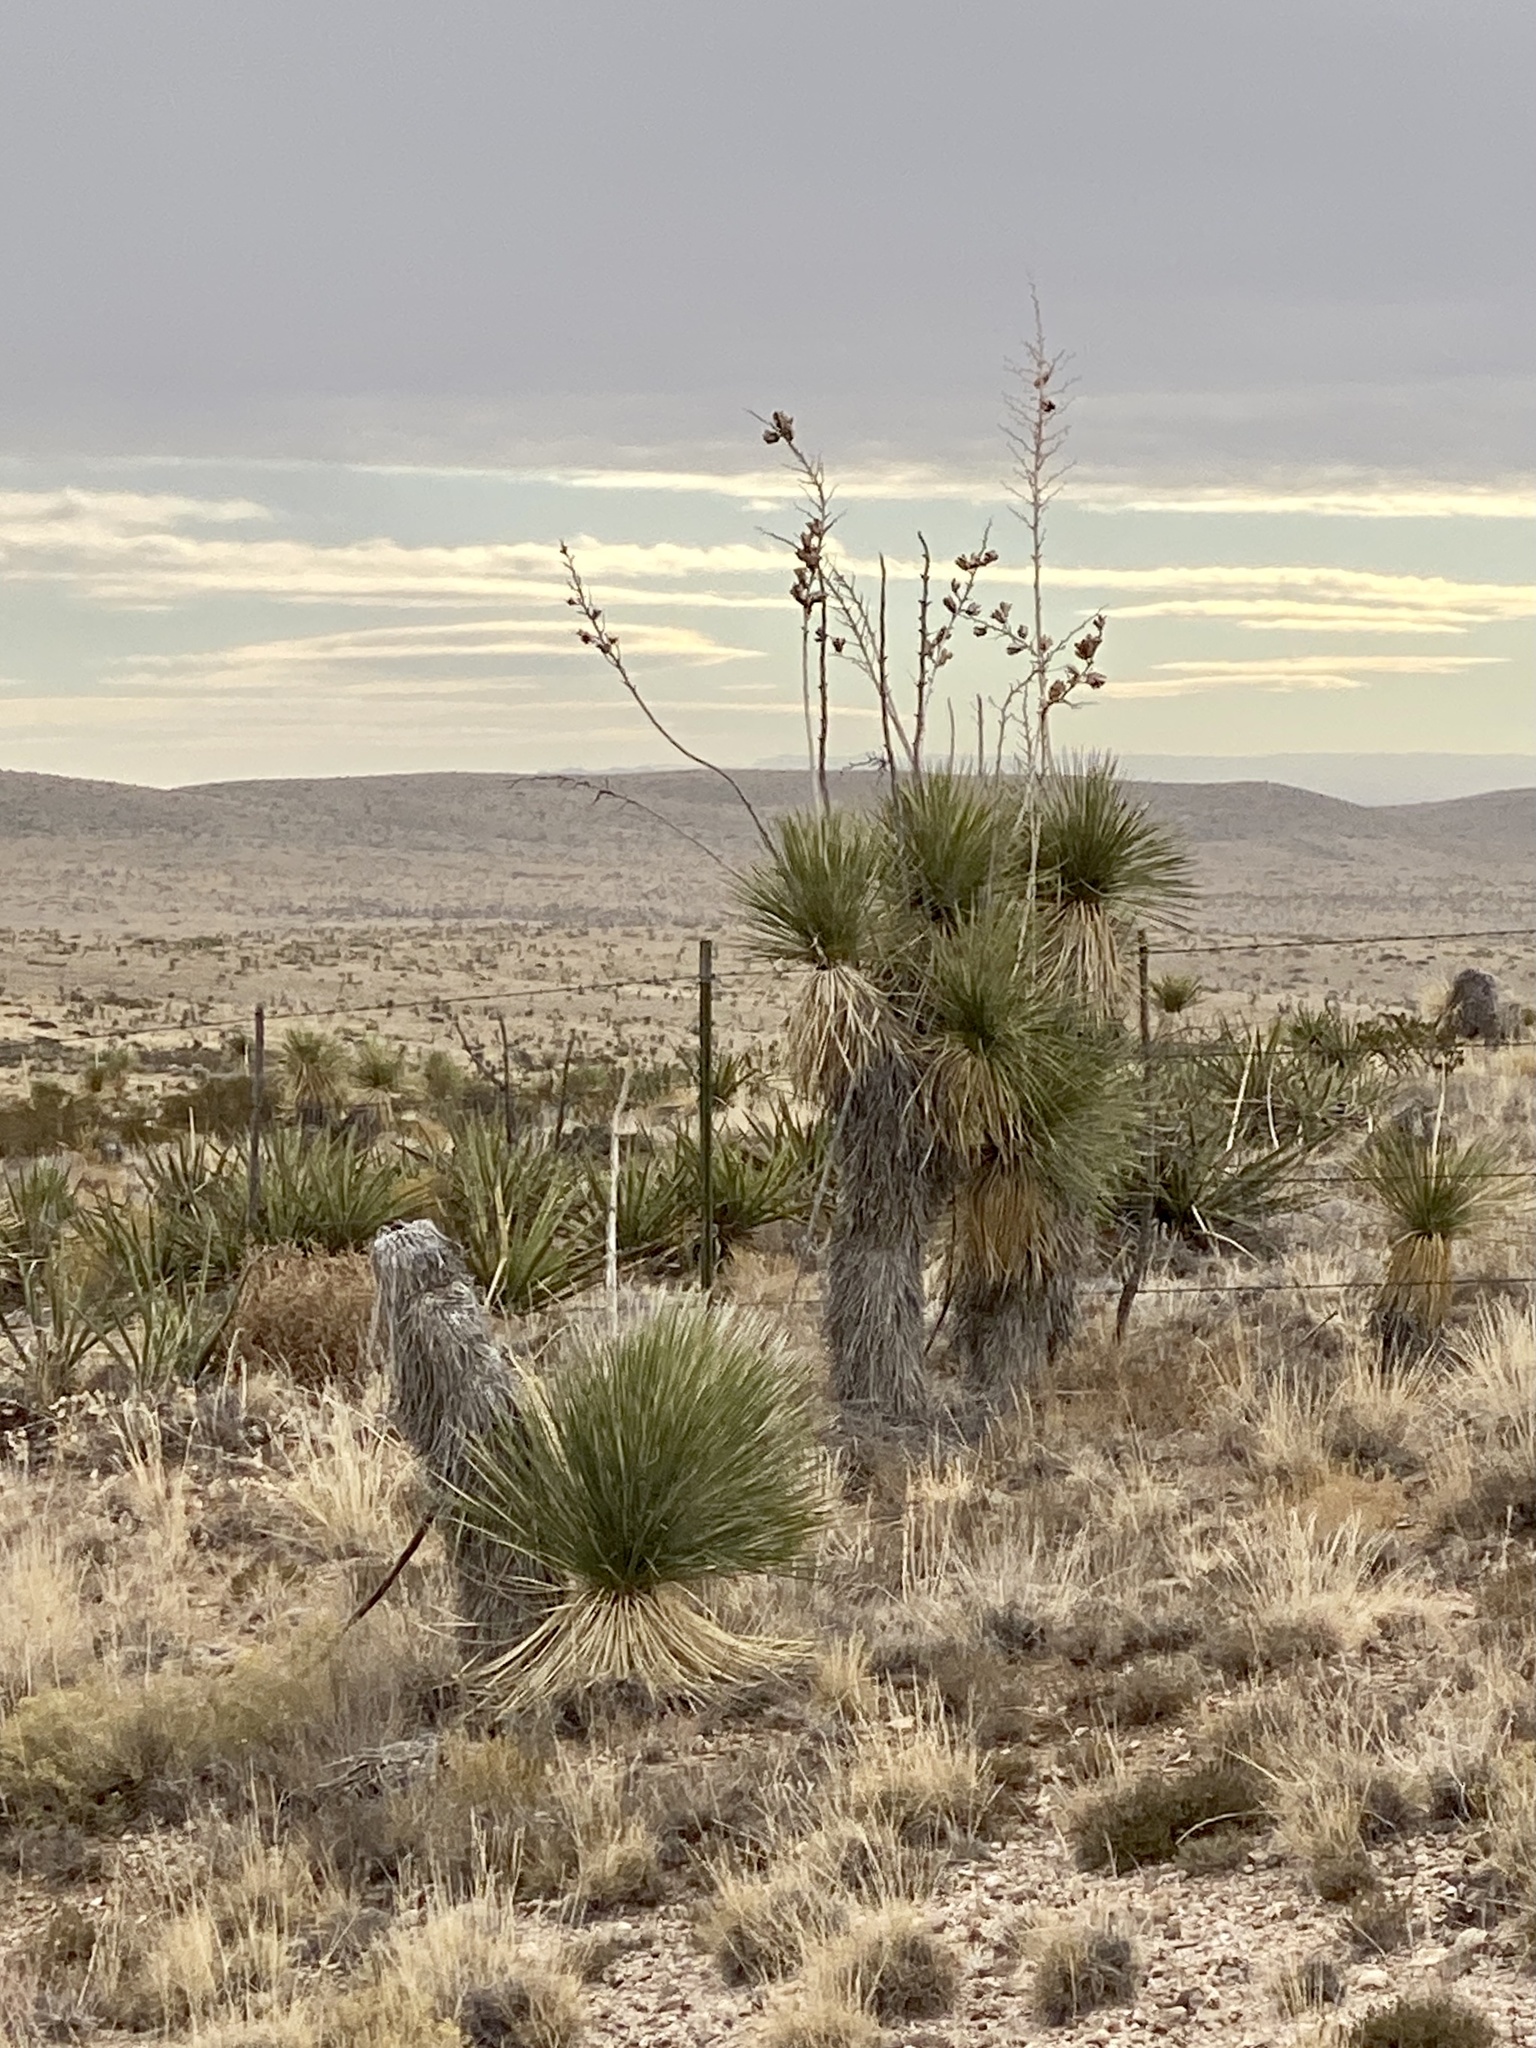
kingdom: Plantae
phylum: Tracheophyta
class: Liliopsida
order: Asparagales
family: Asparagaceae
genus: Yucca
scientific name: Yucca elata
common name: Palmella
